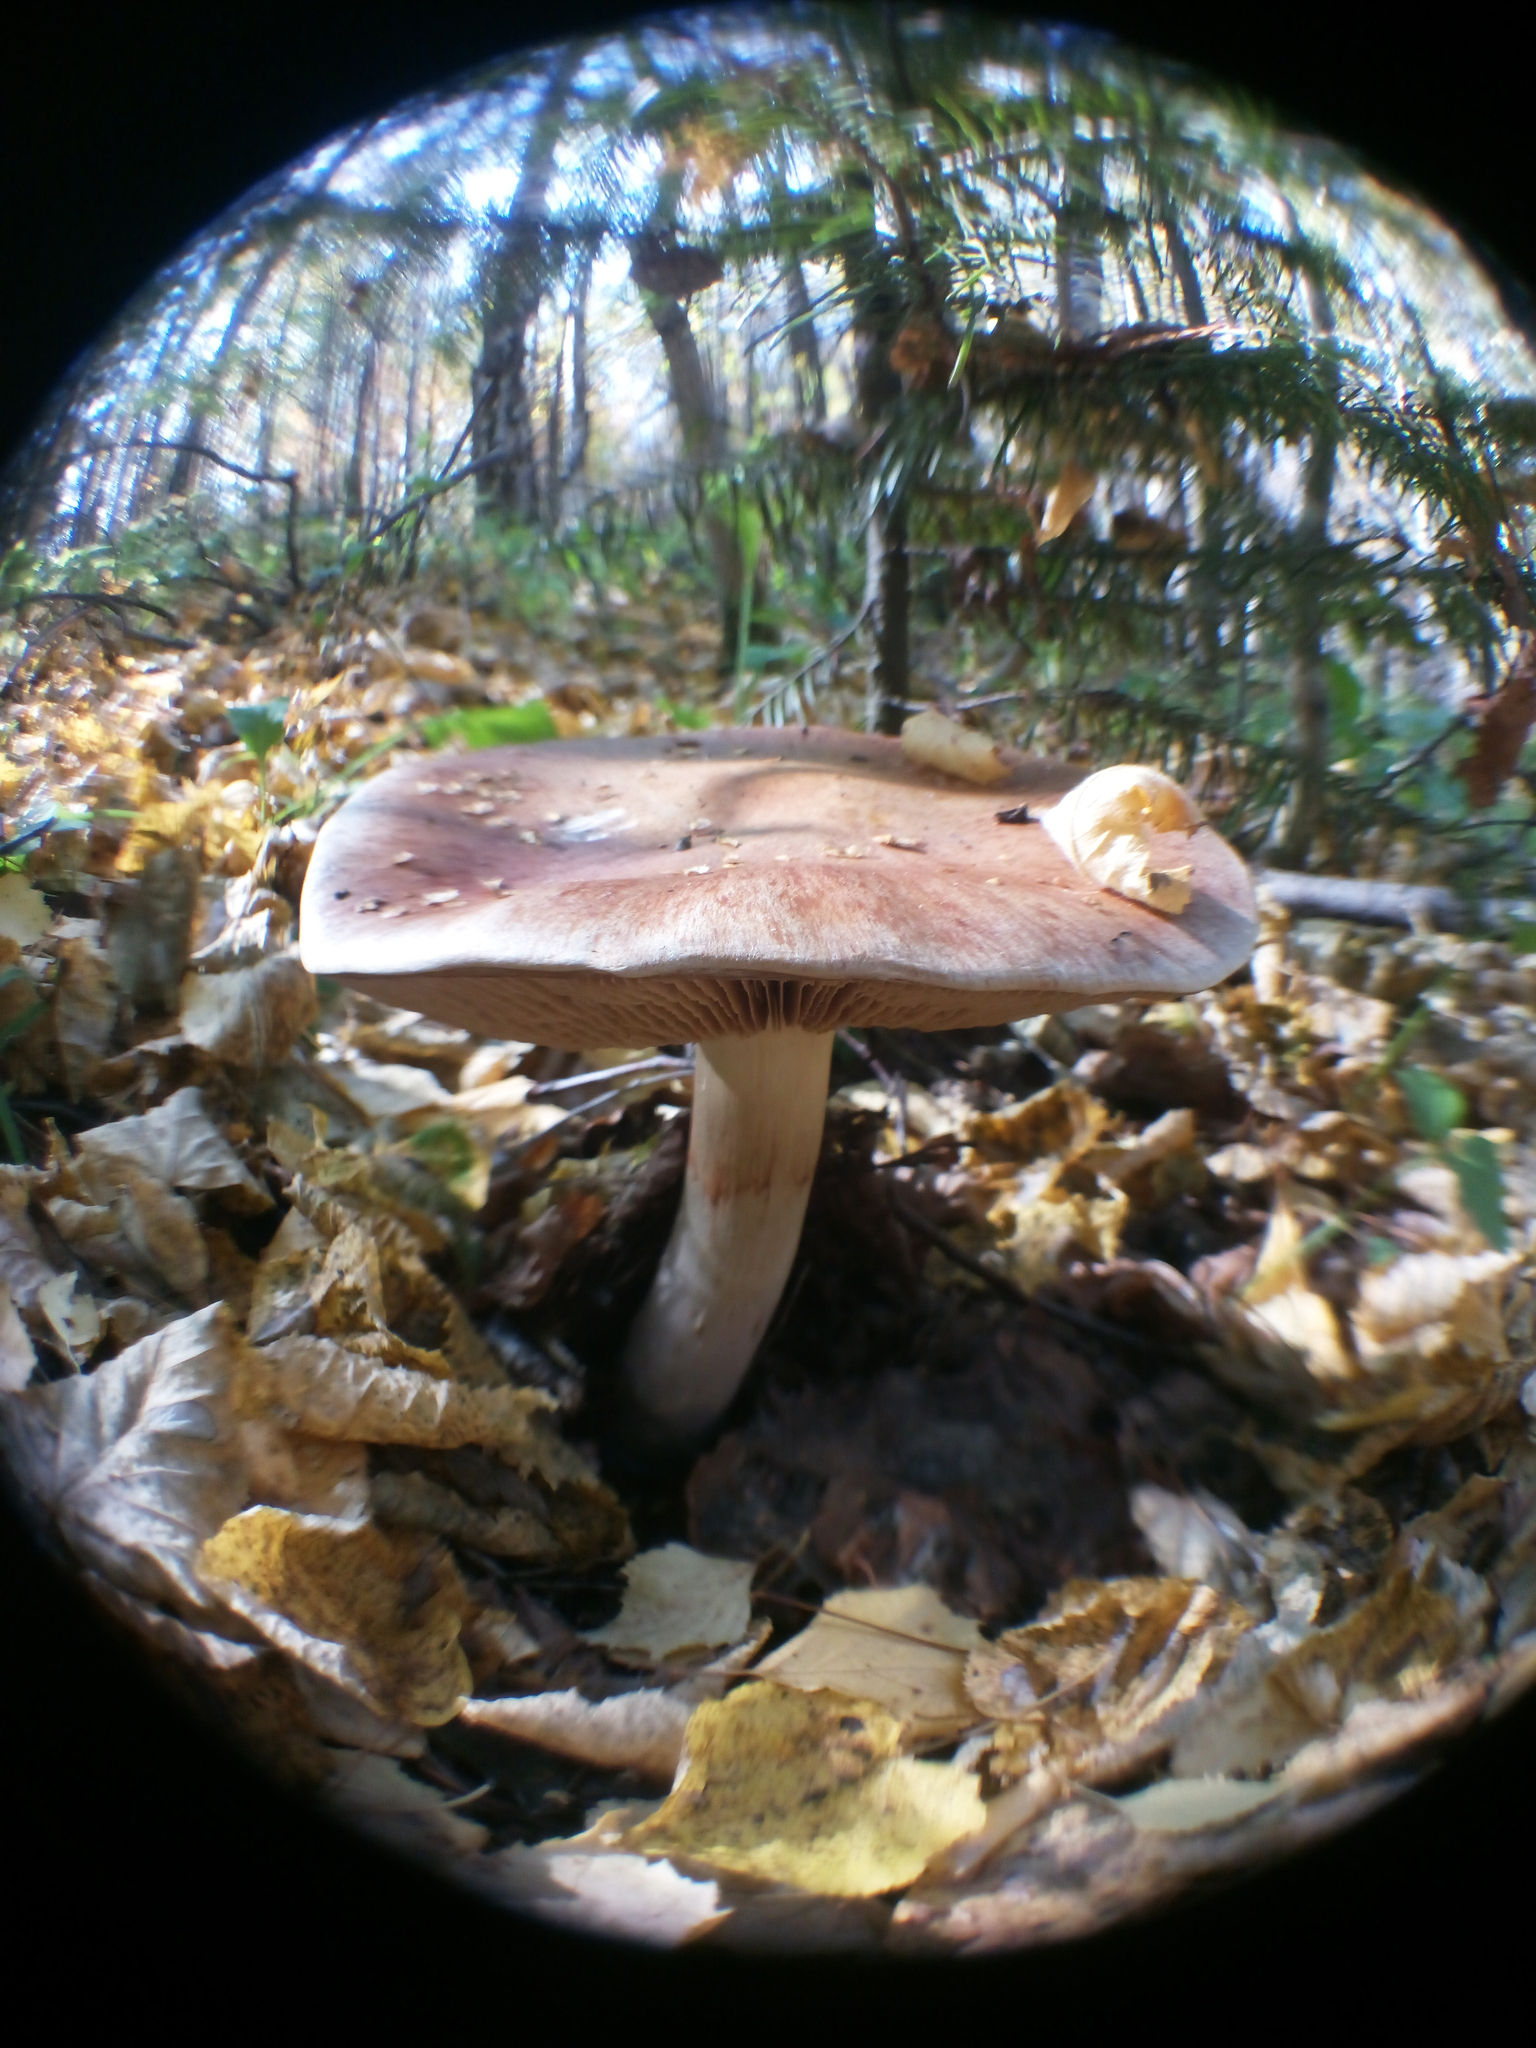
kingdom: Fungi
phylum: Basidiomycota
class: Agaricomycetes
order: Agaricales
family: Cortinariaceae
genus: Cortinarius
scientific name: Cortinarius praestans
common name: Goliath webcap
